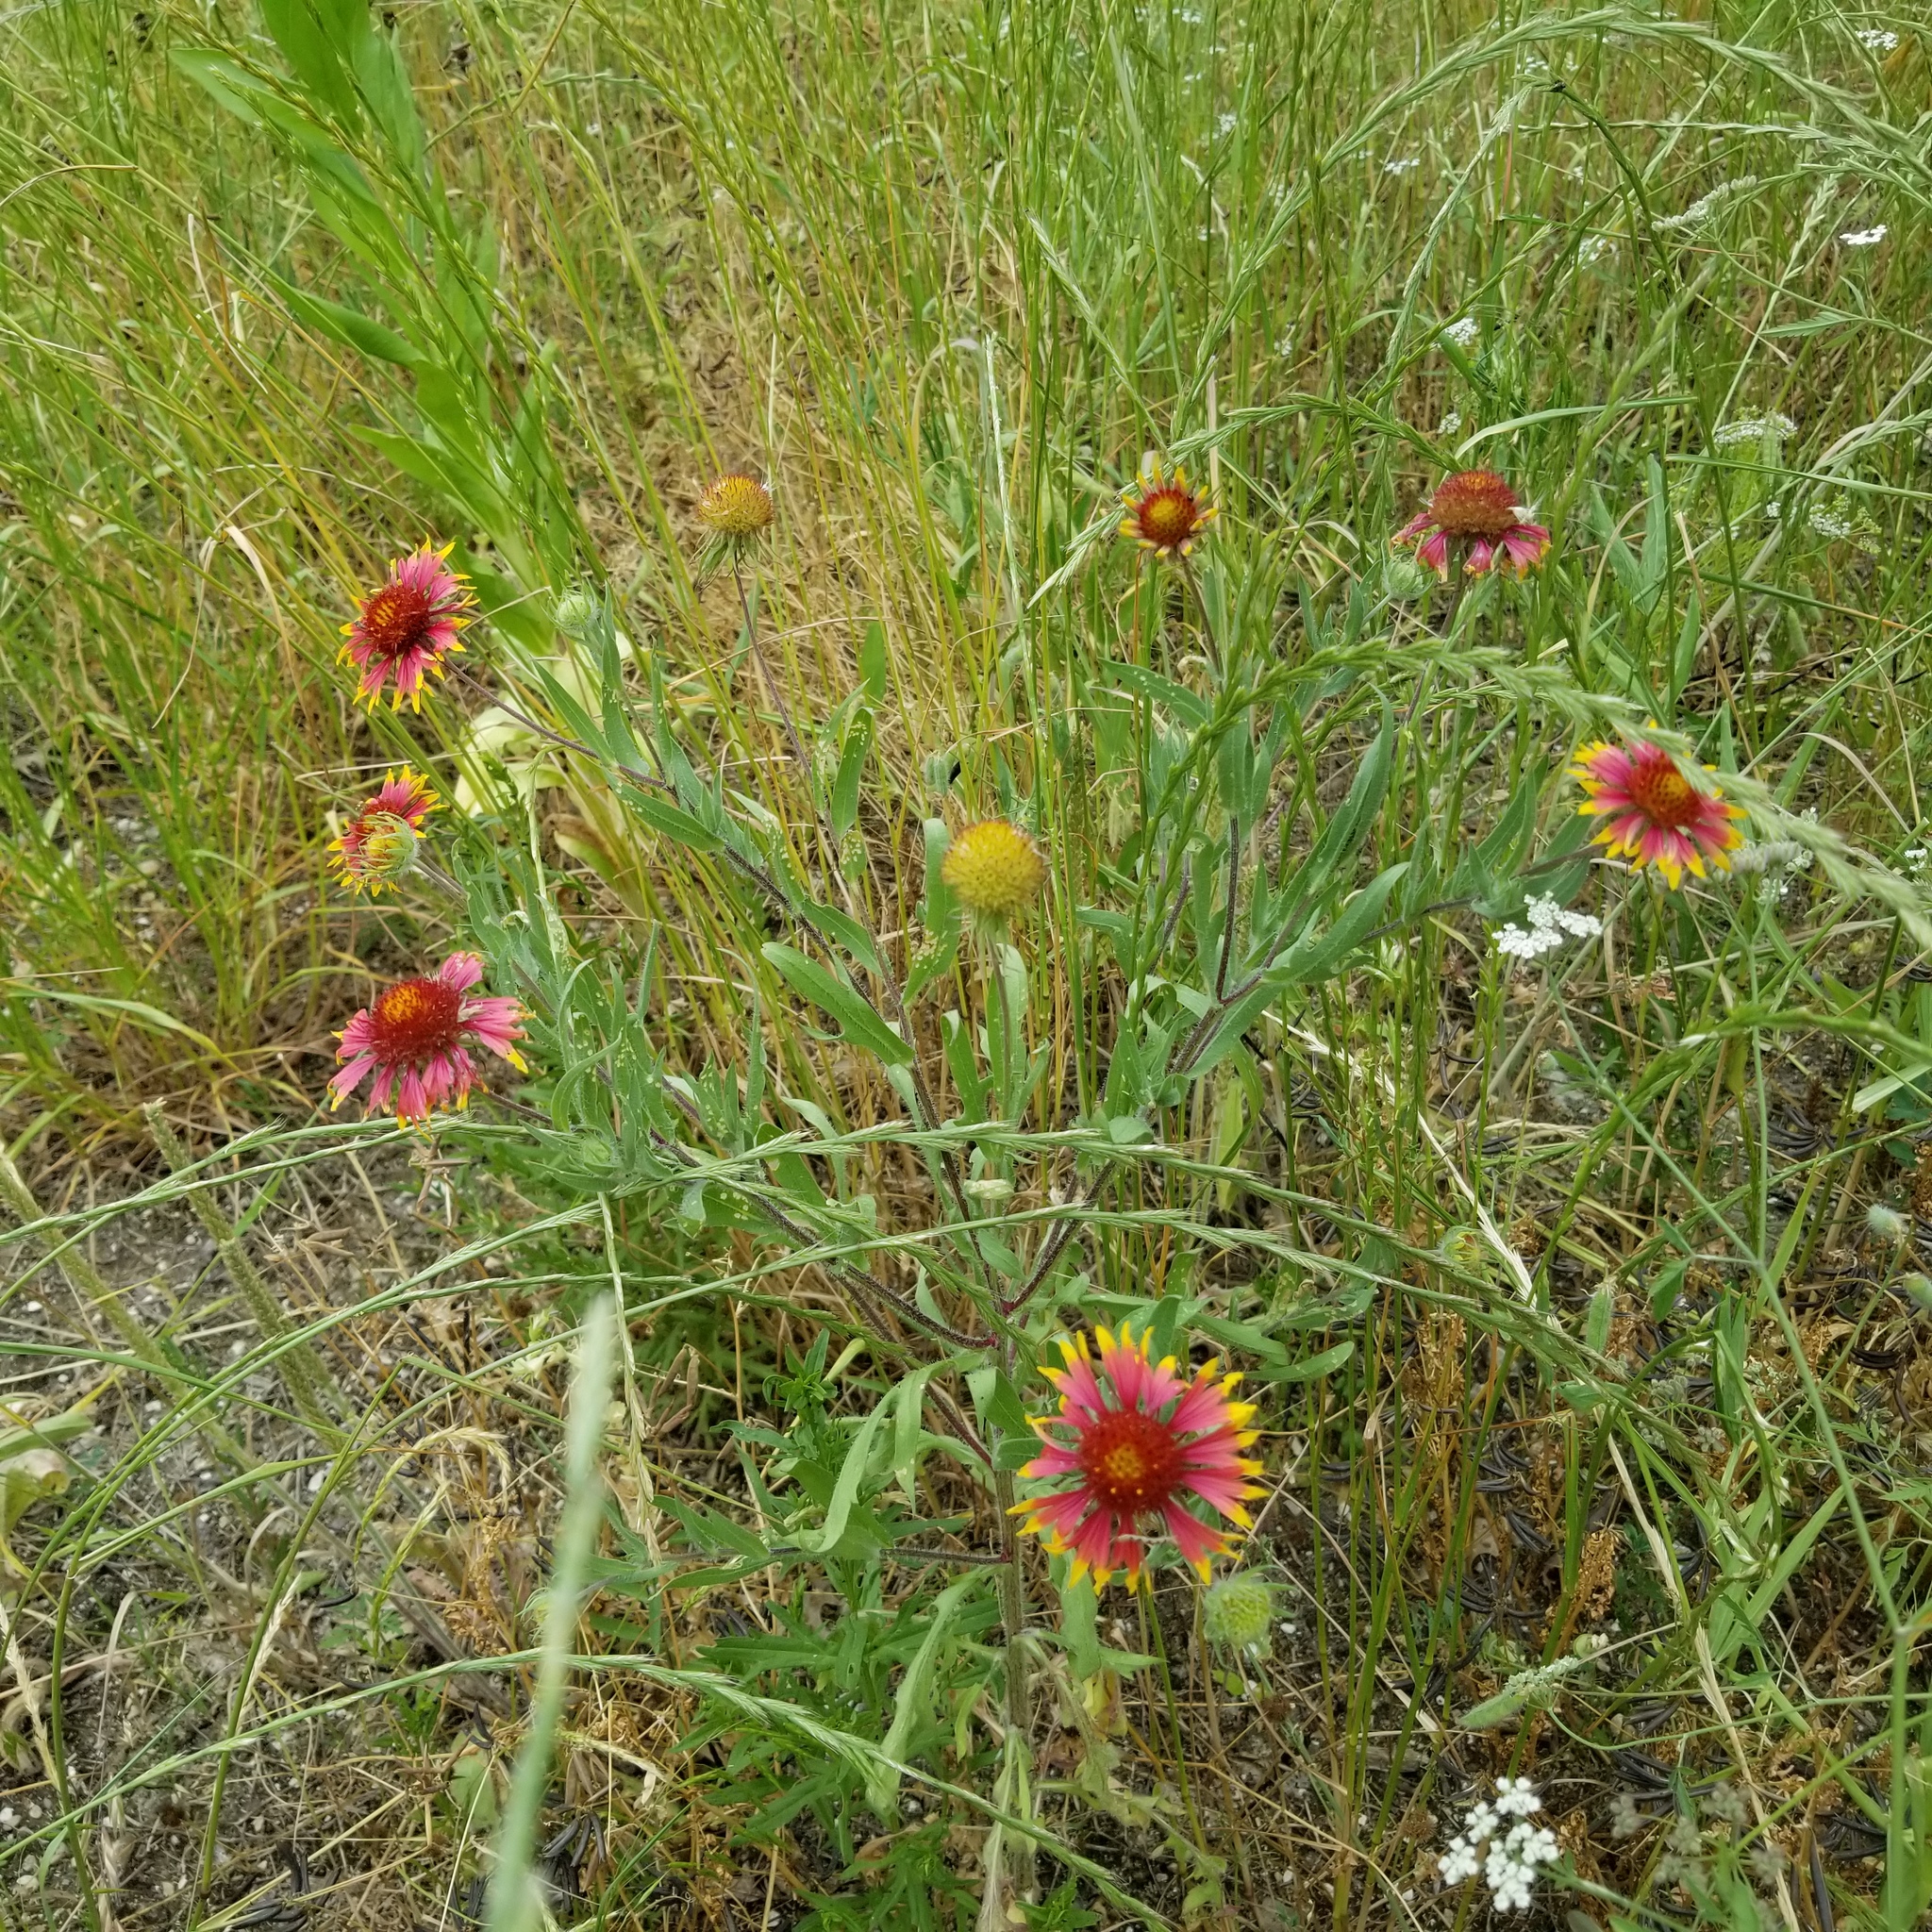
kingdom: Plantae
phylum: Tracheophyta
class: Magnoliopsida
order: Asterales
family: Asteraceae
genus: Gaillardia
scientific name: Gaillardia pulchella
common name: Firewheel
